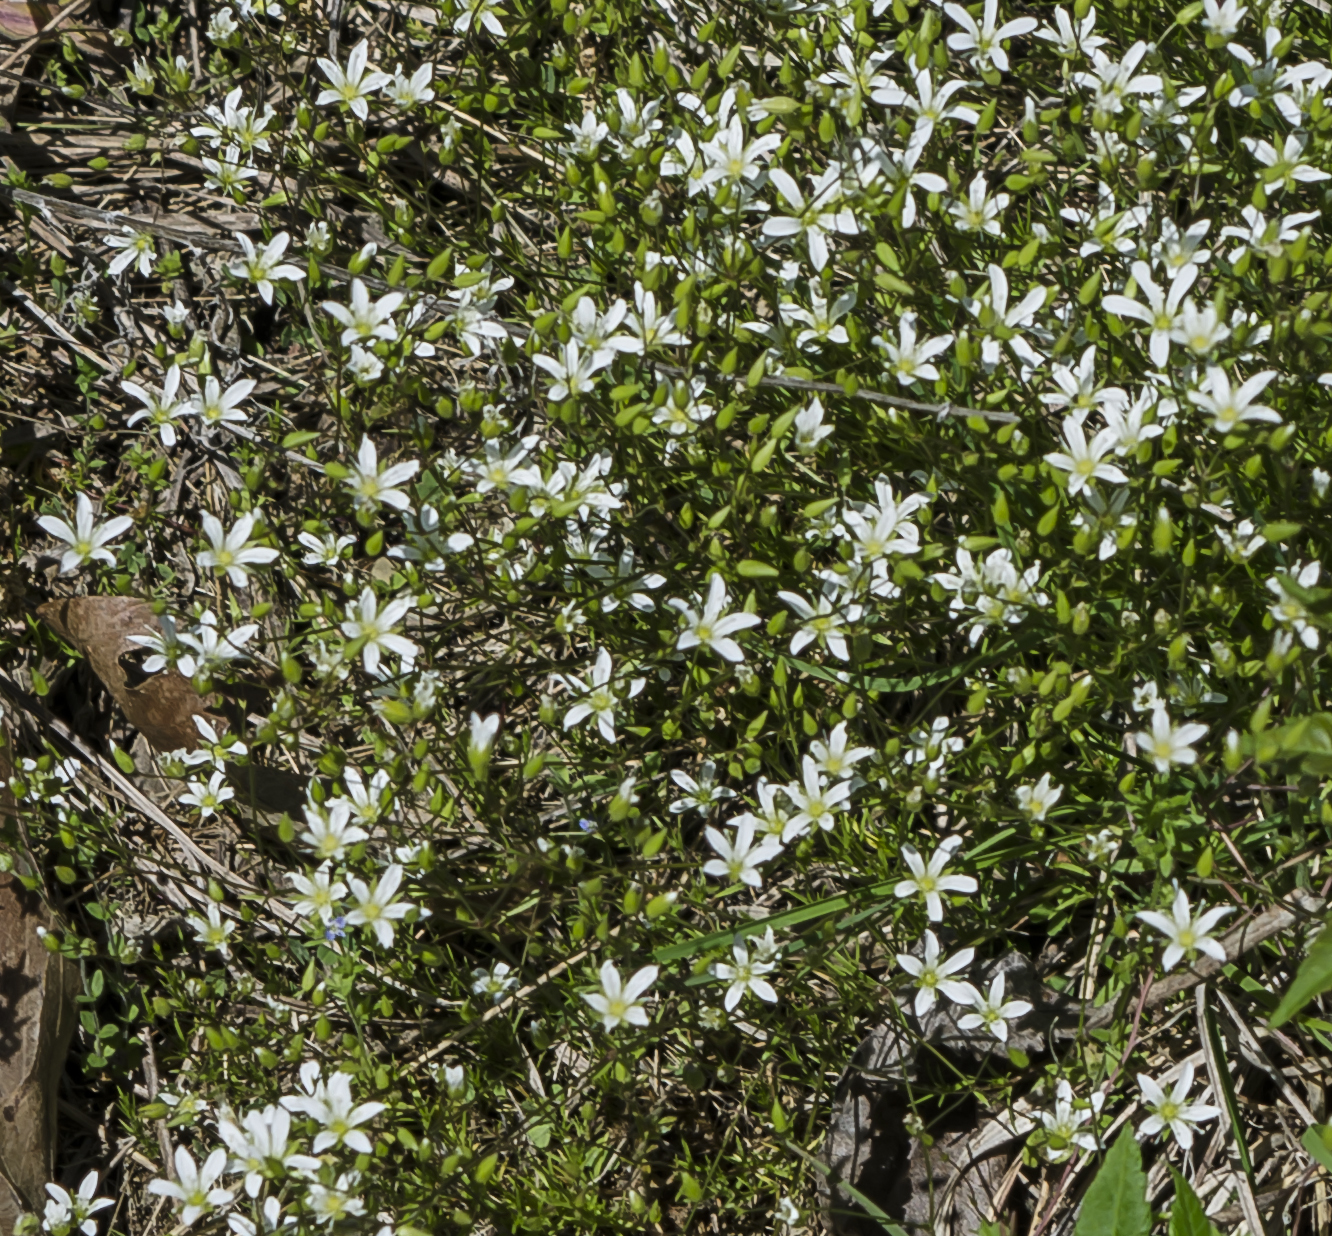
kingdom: Plantae
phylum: Tracheophyta
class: Magnoliopsida
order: Caryophyllales
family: Caryophyllaceae
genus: Sabulina
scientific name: Sabulina michauxii
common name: Michaux's stitchwort
